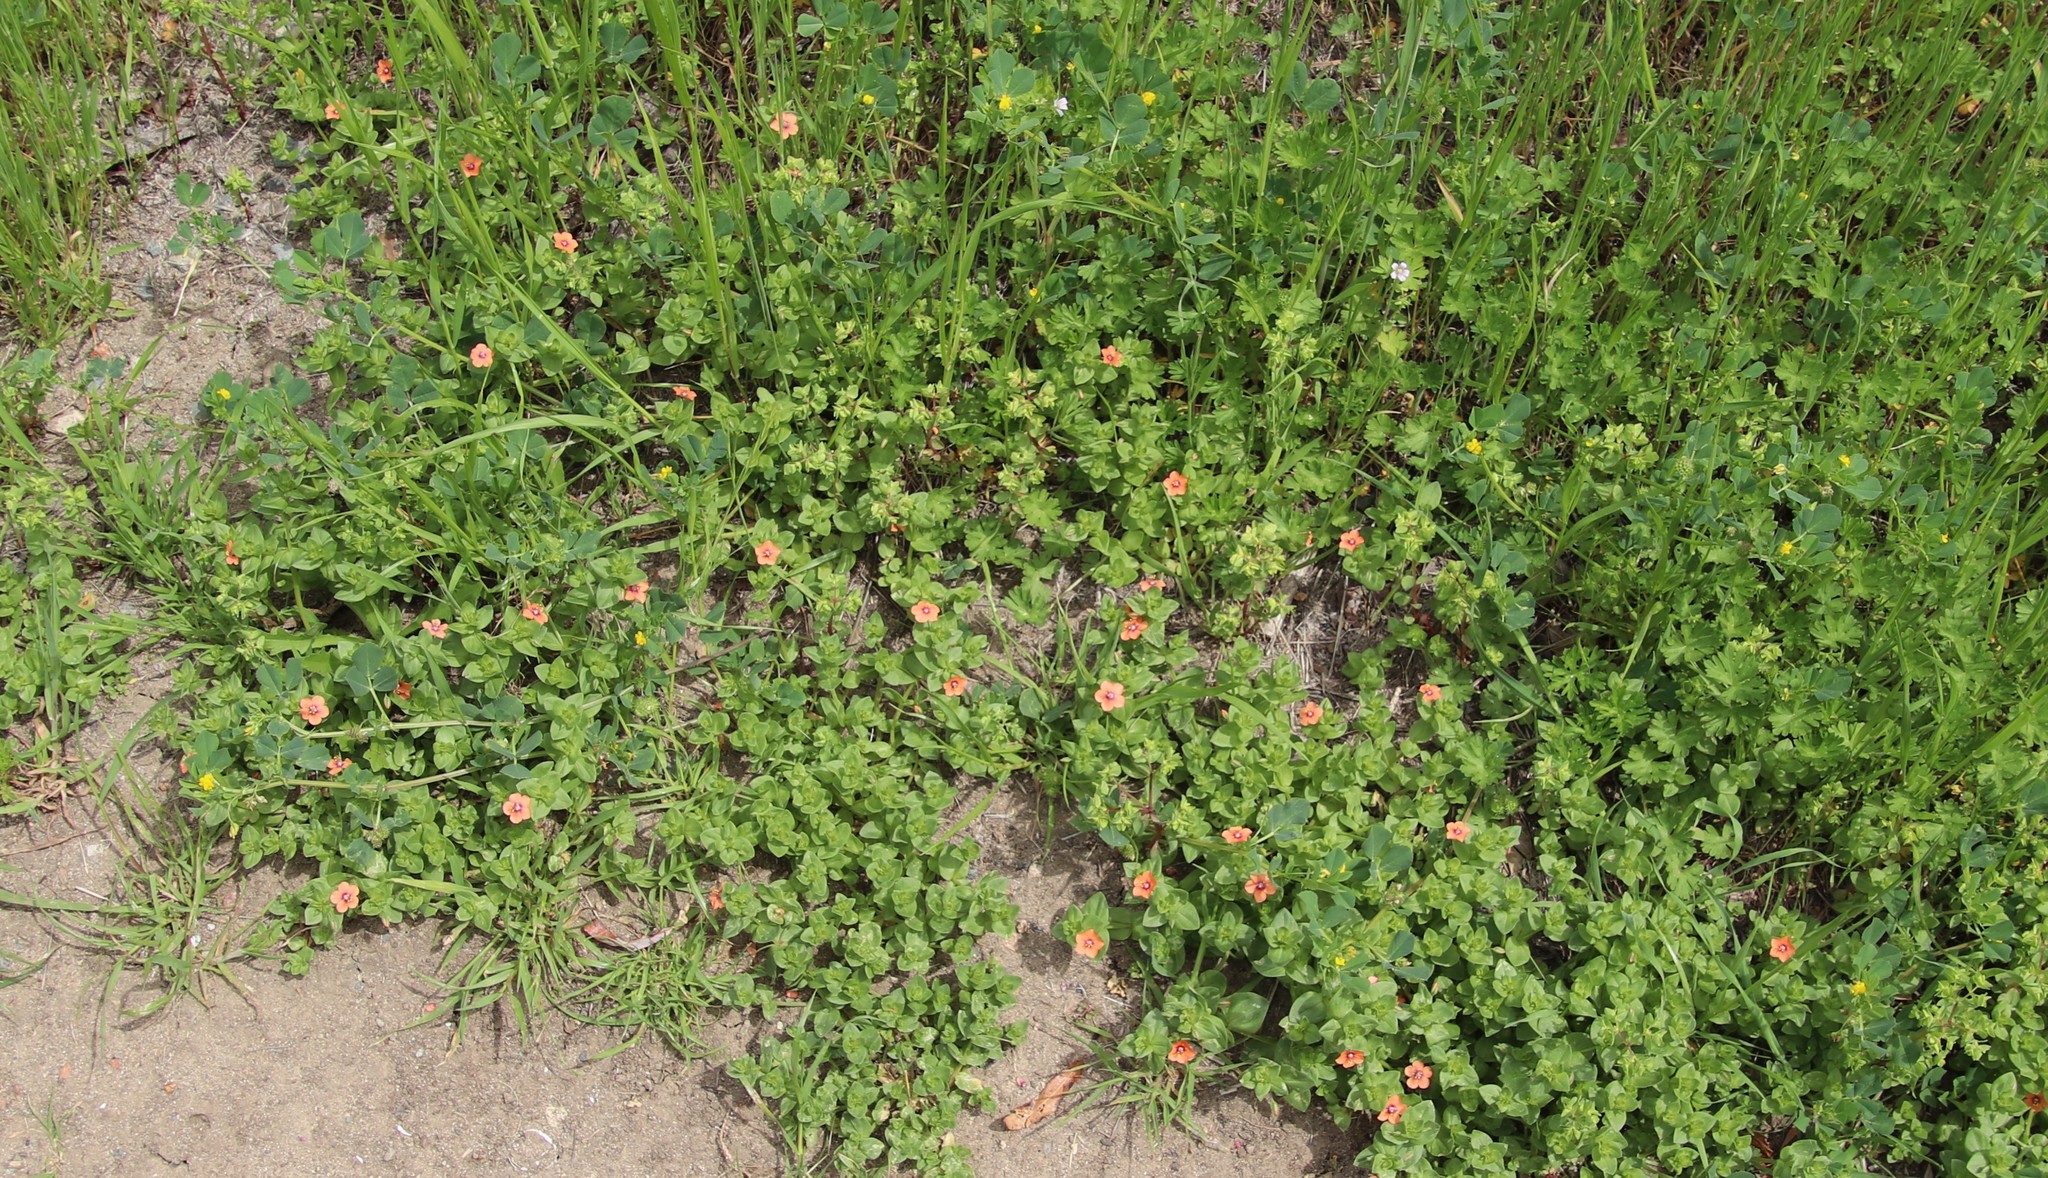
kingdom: Plantae
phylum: Tracheophyta
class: Magnoliopsida
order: Ericales
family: Primulaceae
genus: Lysimachia
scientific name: Lysimachia arvensis
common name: Scarlet pimpernel
